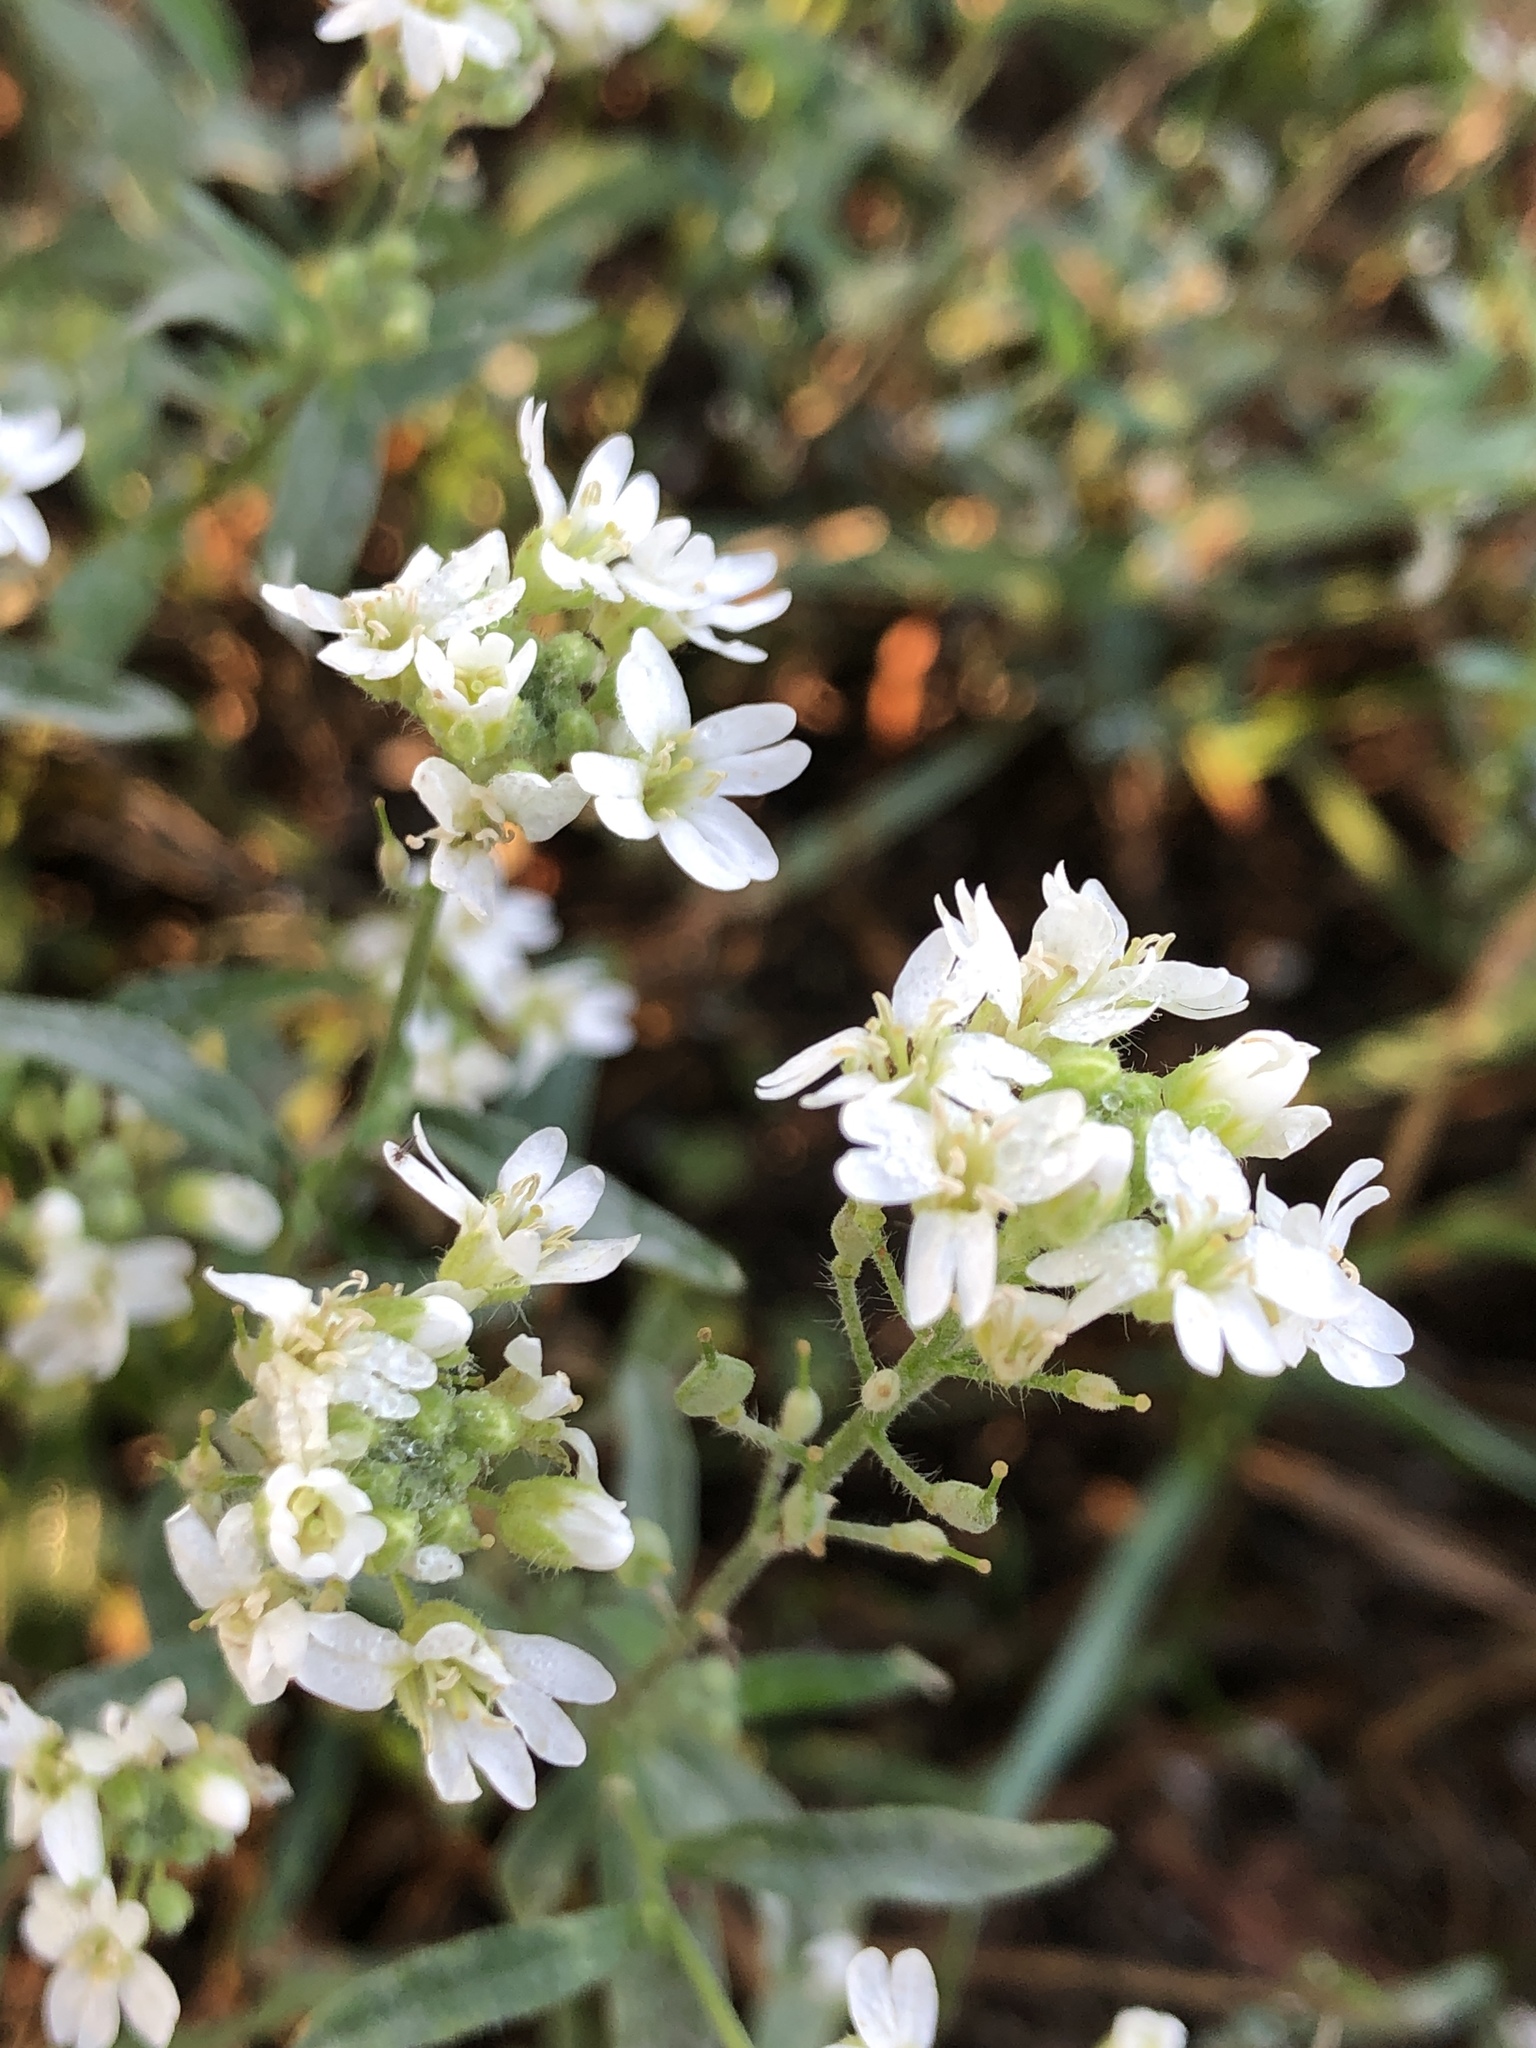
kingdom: Plantae
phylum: Tracheophyta
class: Magnoliopsida
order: Brassicales
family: Brassicaceae
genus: Berteroa
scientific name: Berteroa incana
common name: Hoary alison
